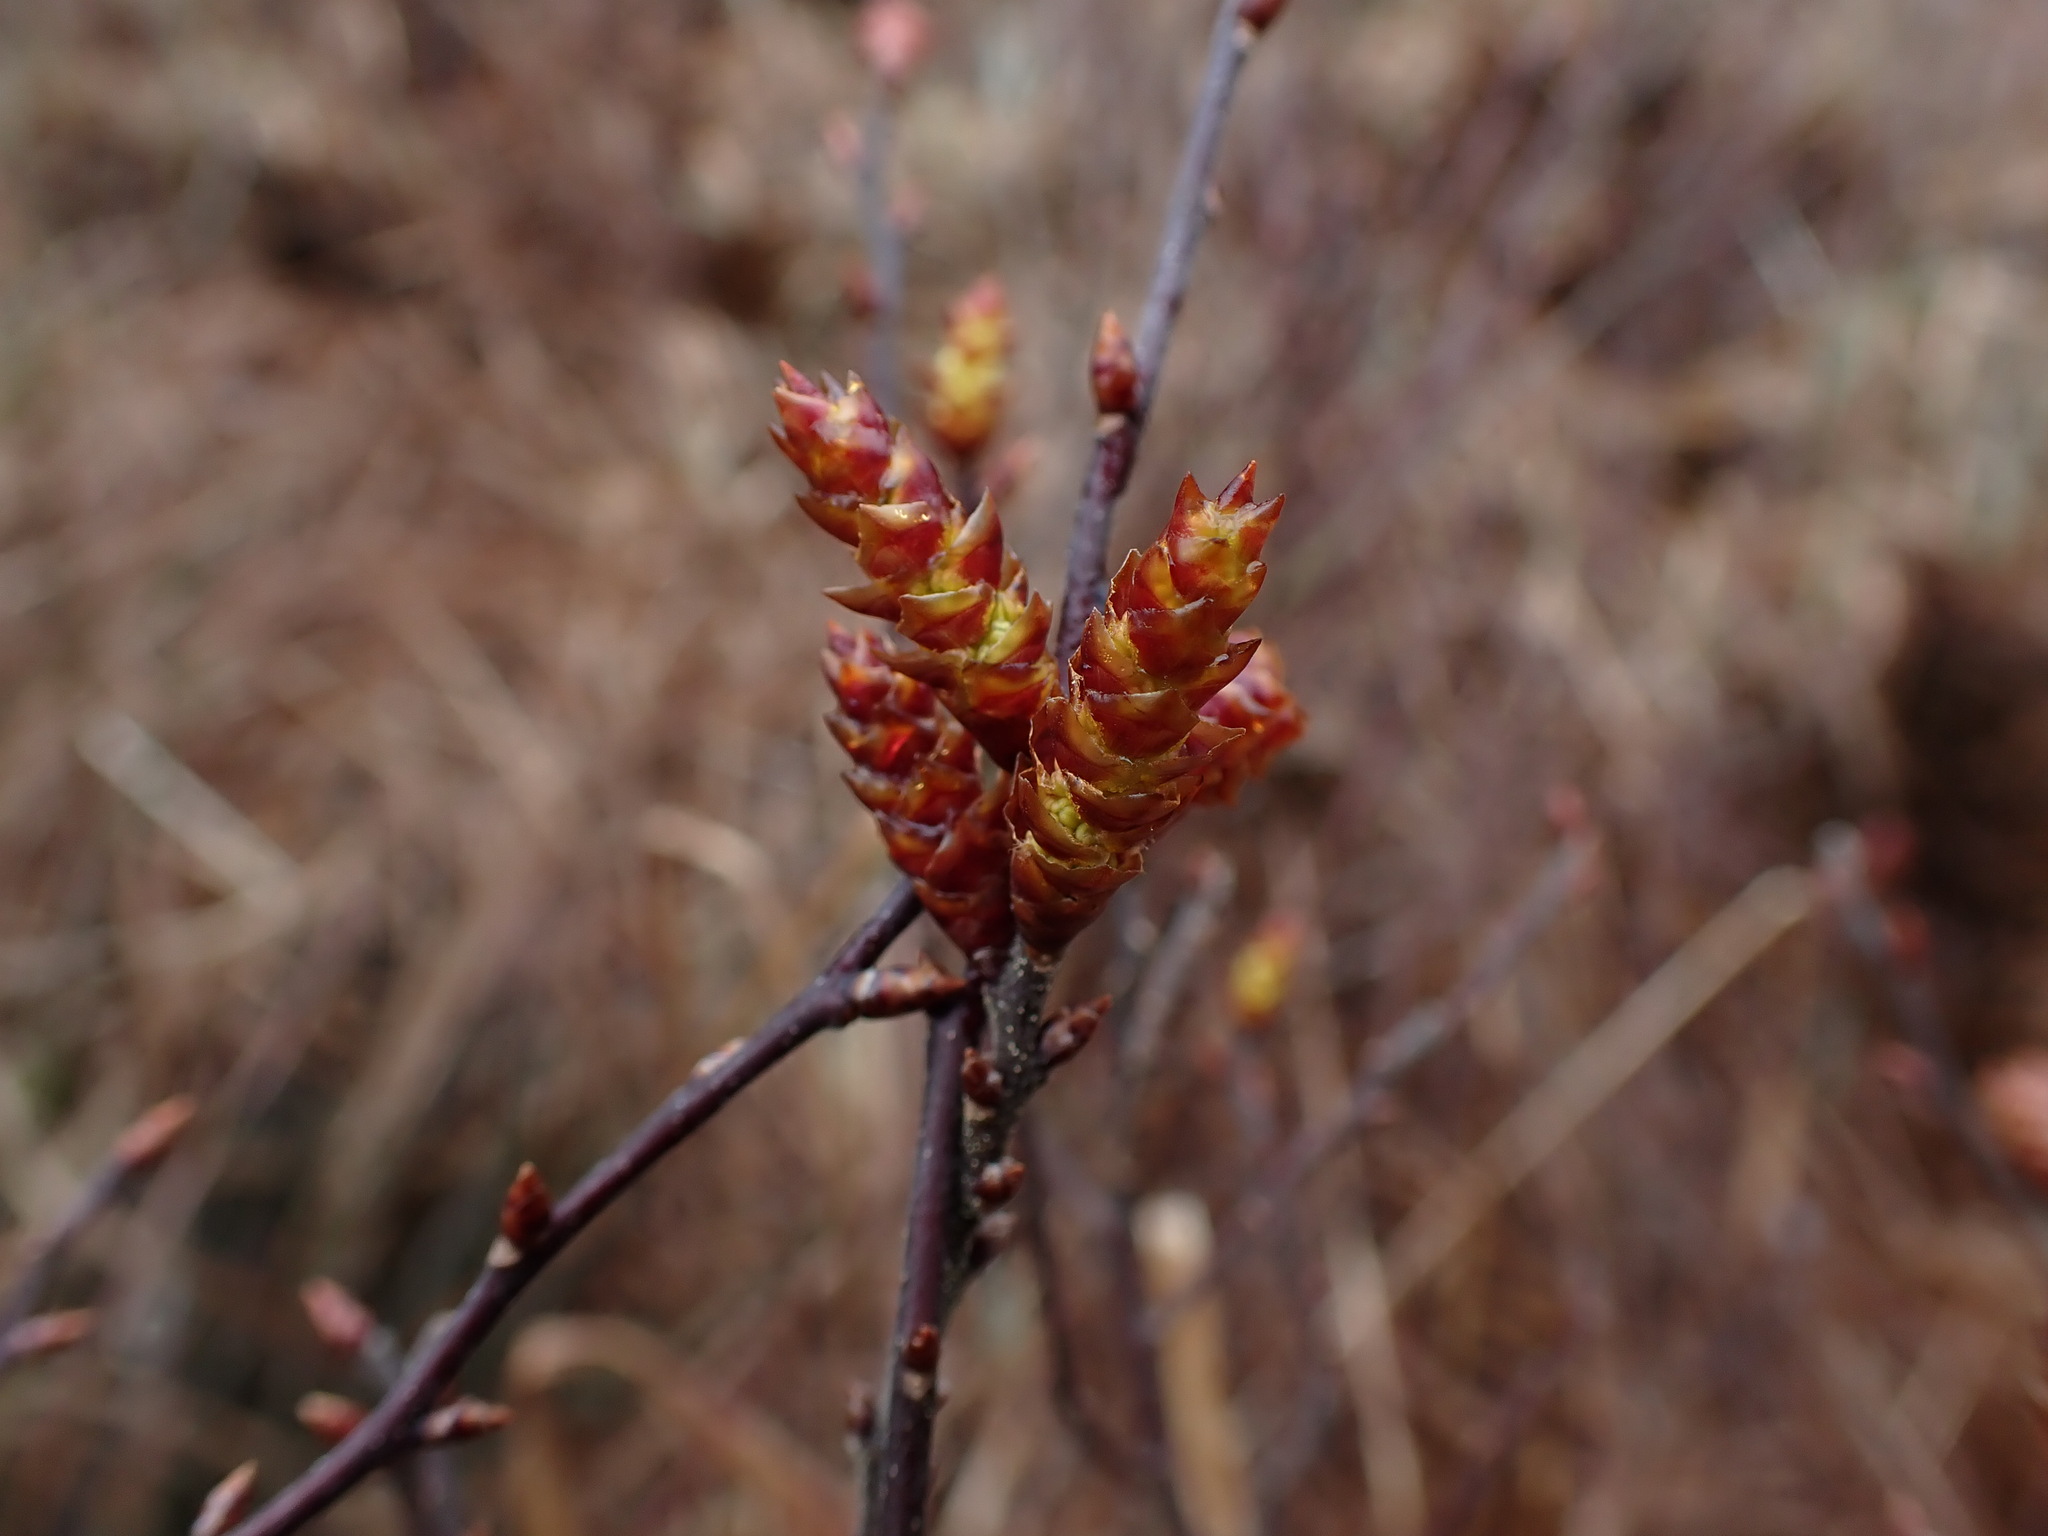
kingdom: Plantae
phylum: Tracheophyta
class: Magnoliopsida
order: Fagales
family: Myricaceae
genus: Myrica
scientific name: Myrica gale
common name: Sweet gale
